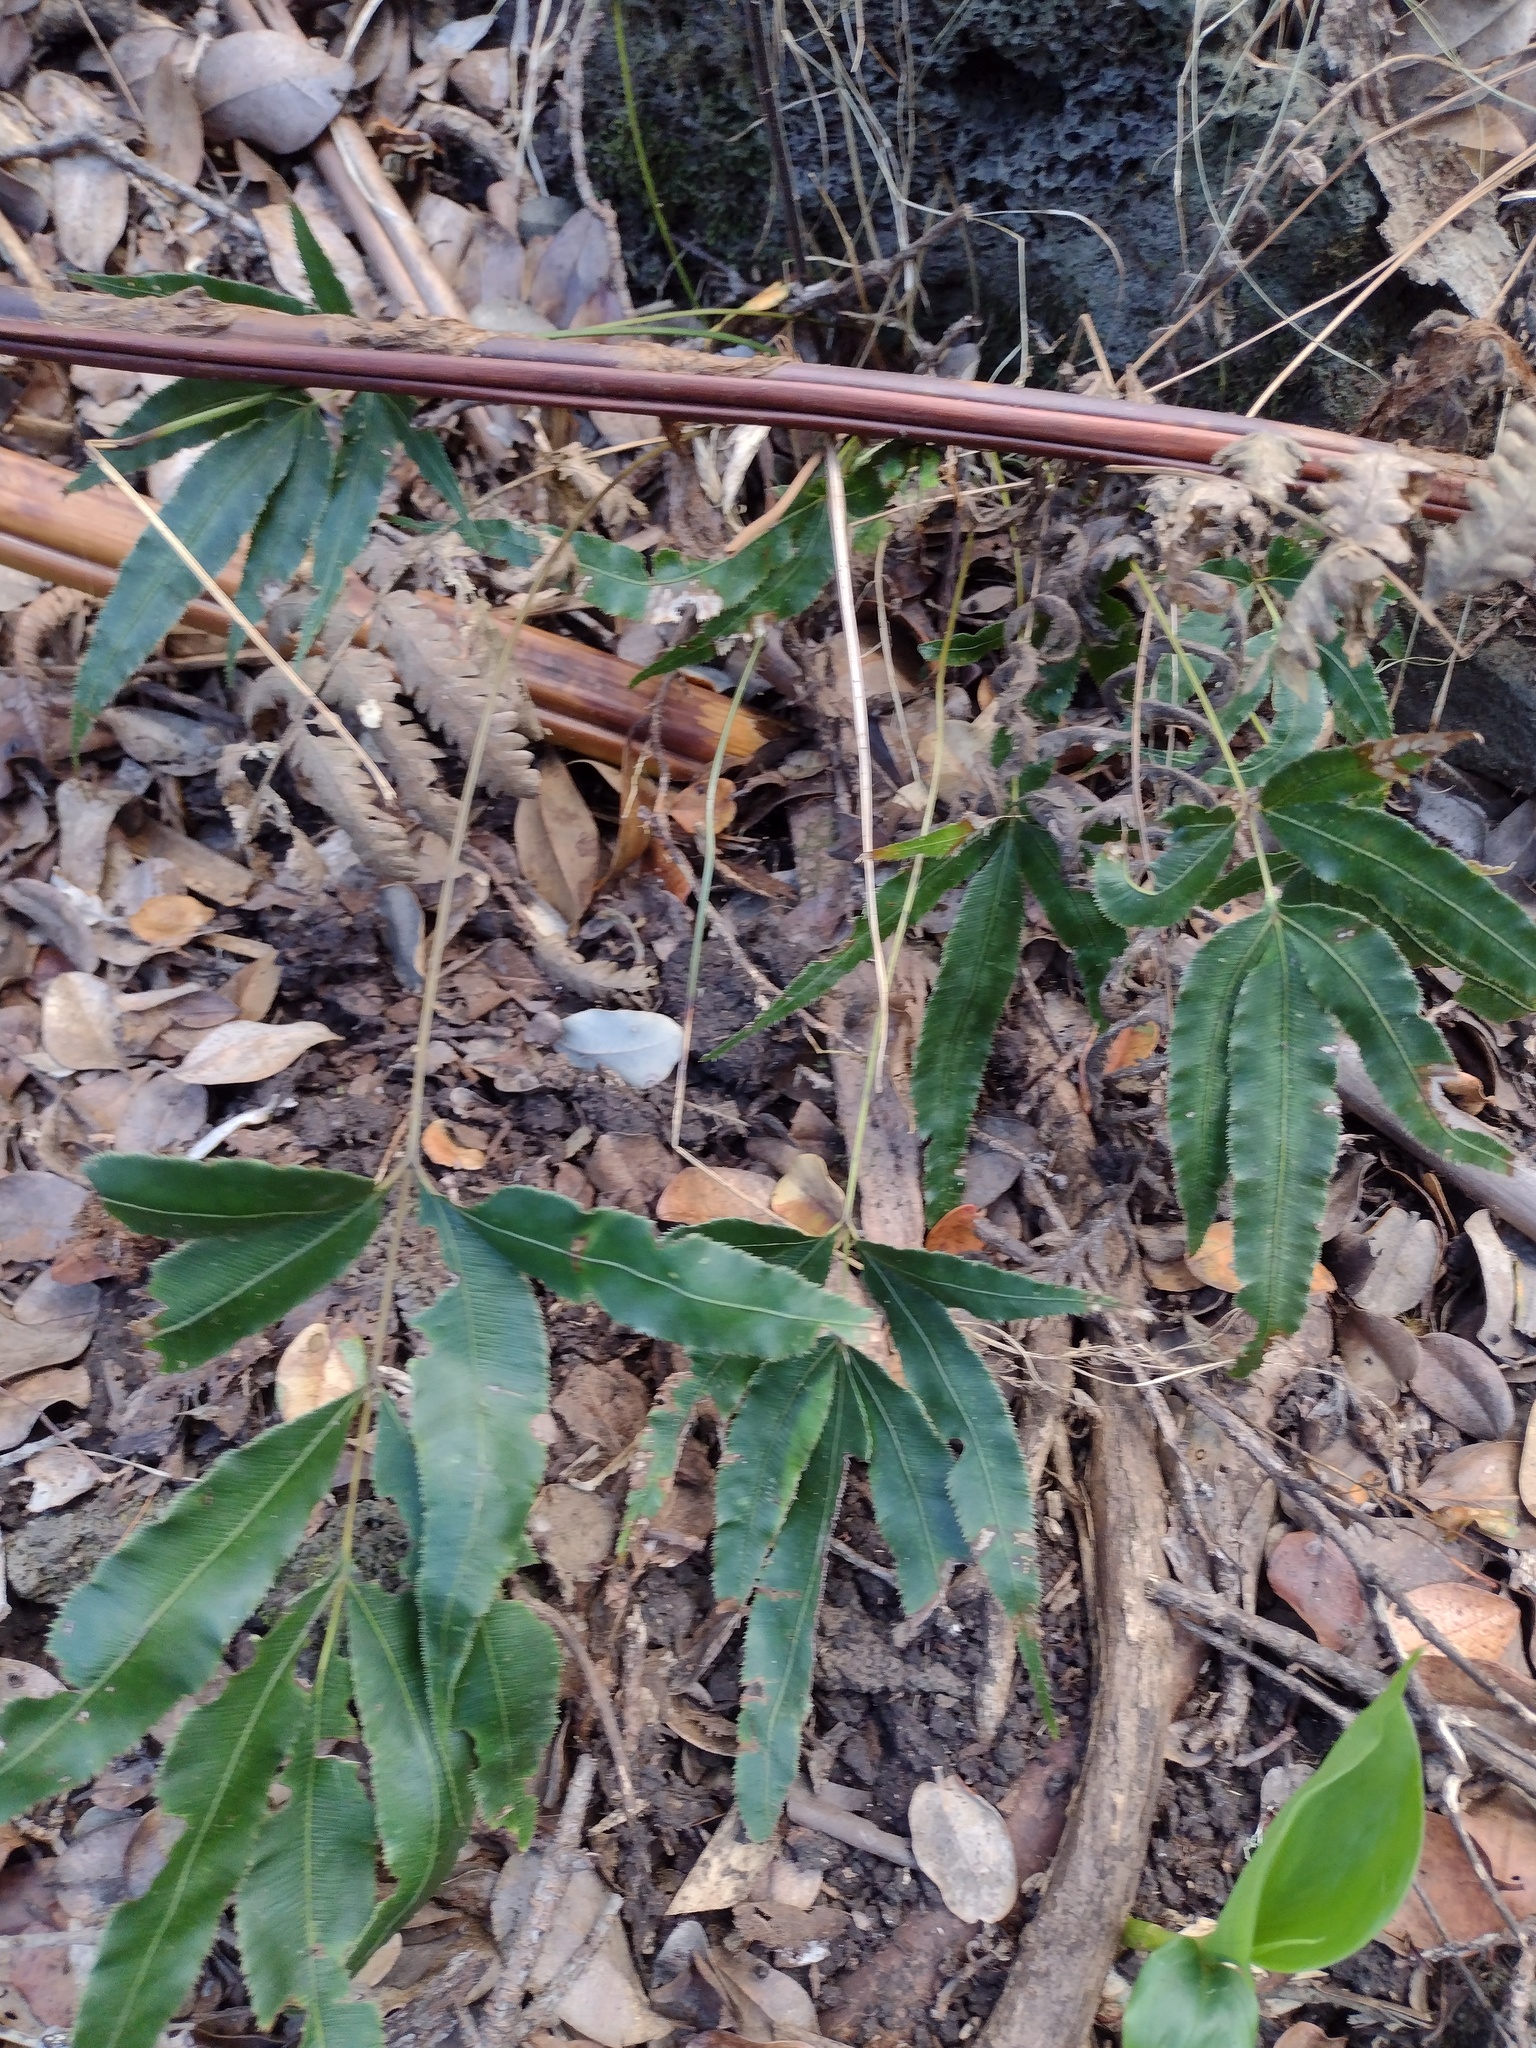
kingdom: Plantae
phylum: Tracheophyta
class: Polypodiopsida
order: Polypodiales
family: Pteridaceae
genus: Pteris
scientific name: Pteris cretica
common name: Ribbon fern
